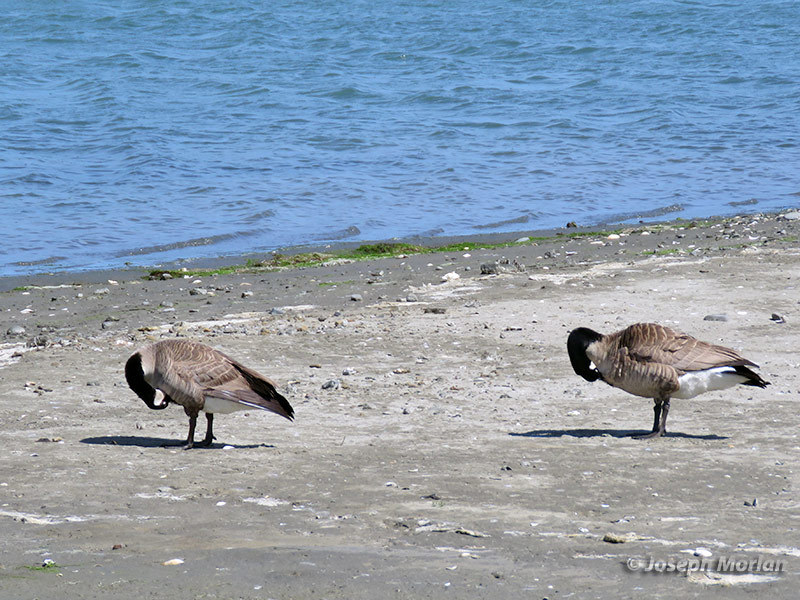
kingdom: Animalia
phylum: Chordata
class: Aves
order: Anseriformes
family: Anatidae
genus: Branta
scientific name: Branta canadensis
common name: Canada goose
